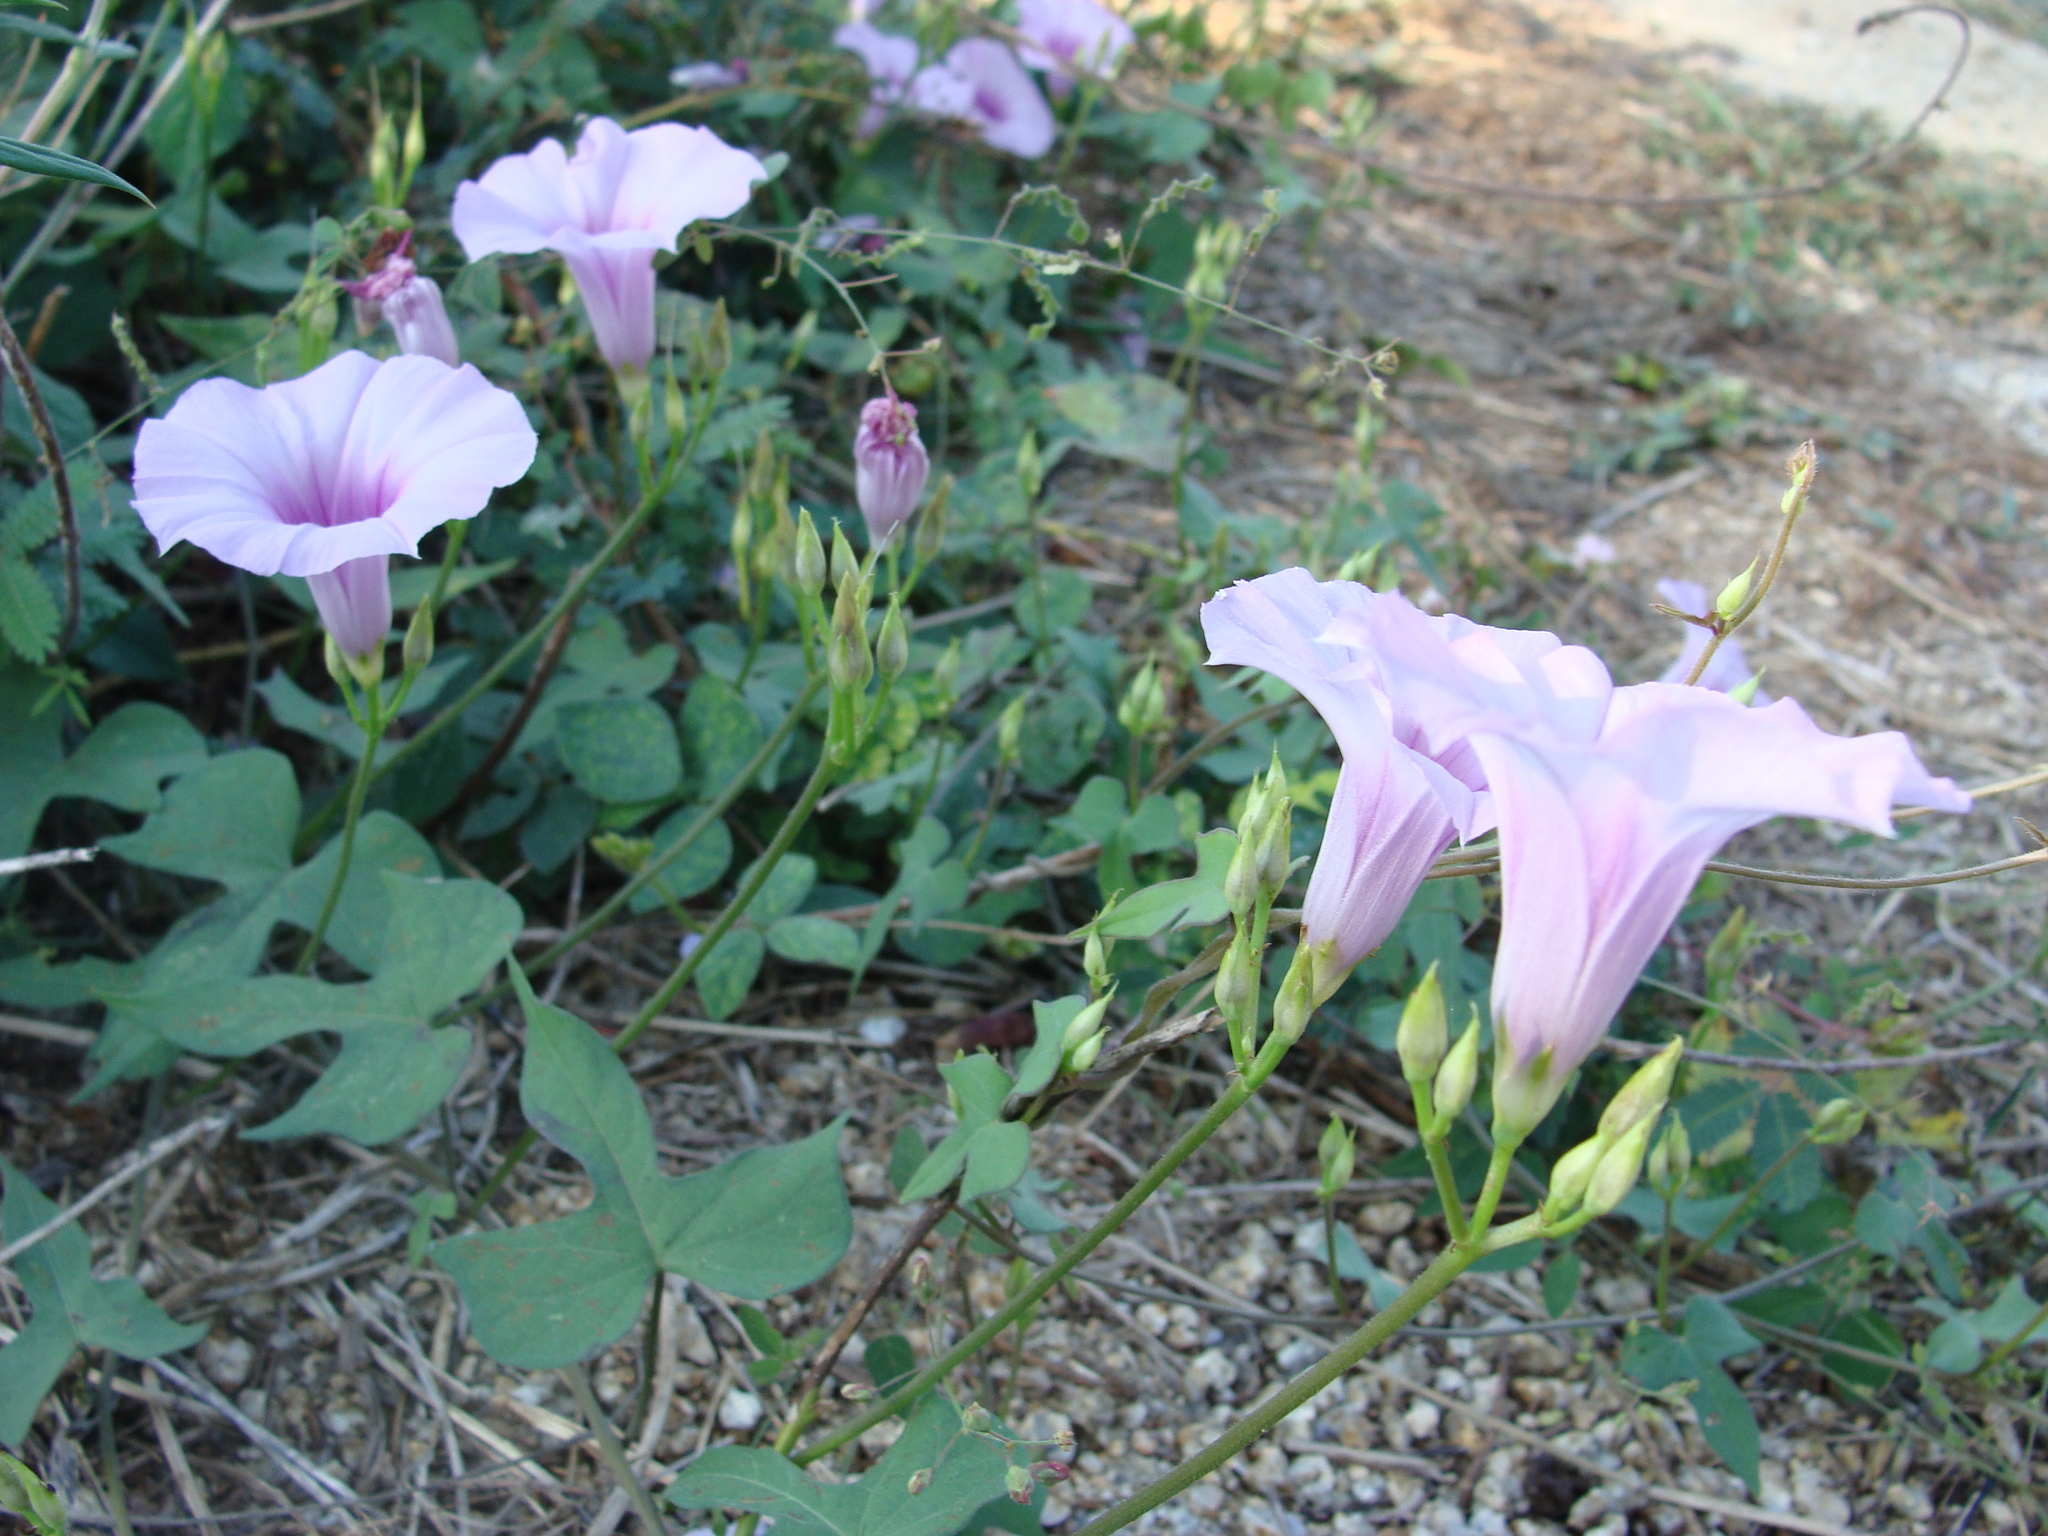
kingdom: Plantae
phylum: Tracheophyta
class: Magnoliopsida
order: Solanales
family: Convolvulaceae
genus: Ipomoea
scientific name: Ipomoea trifida
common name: Cotton morningglory
